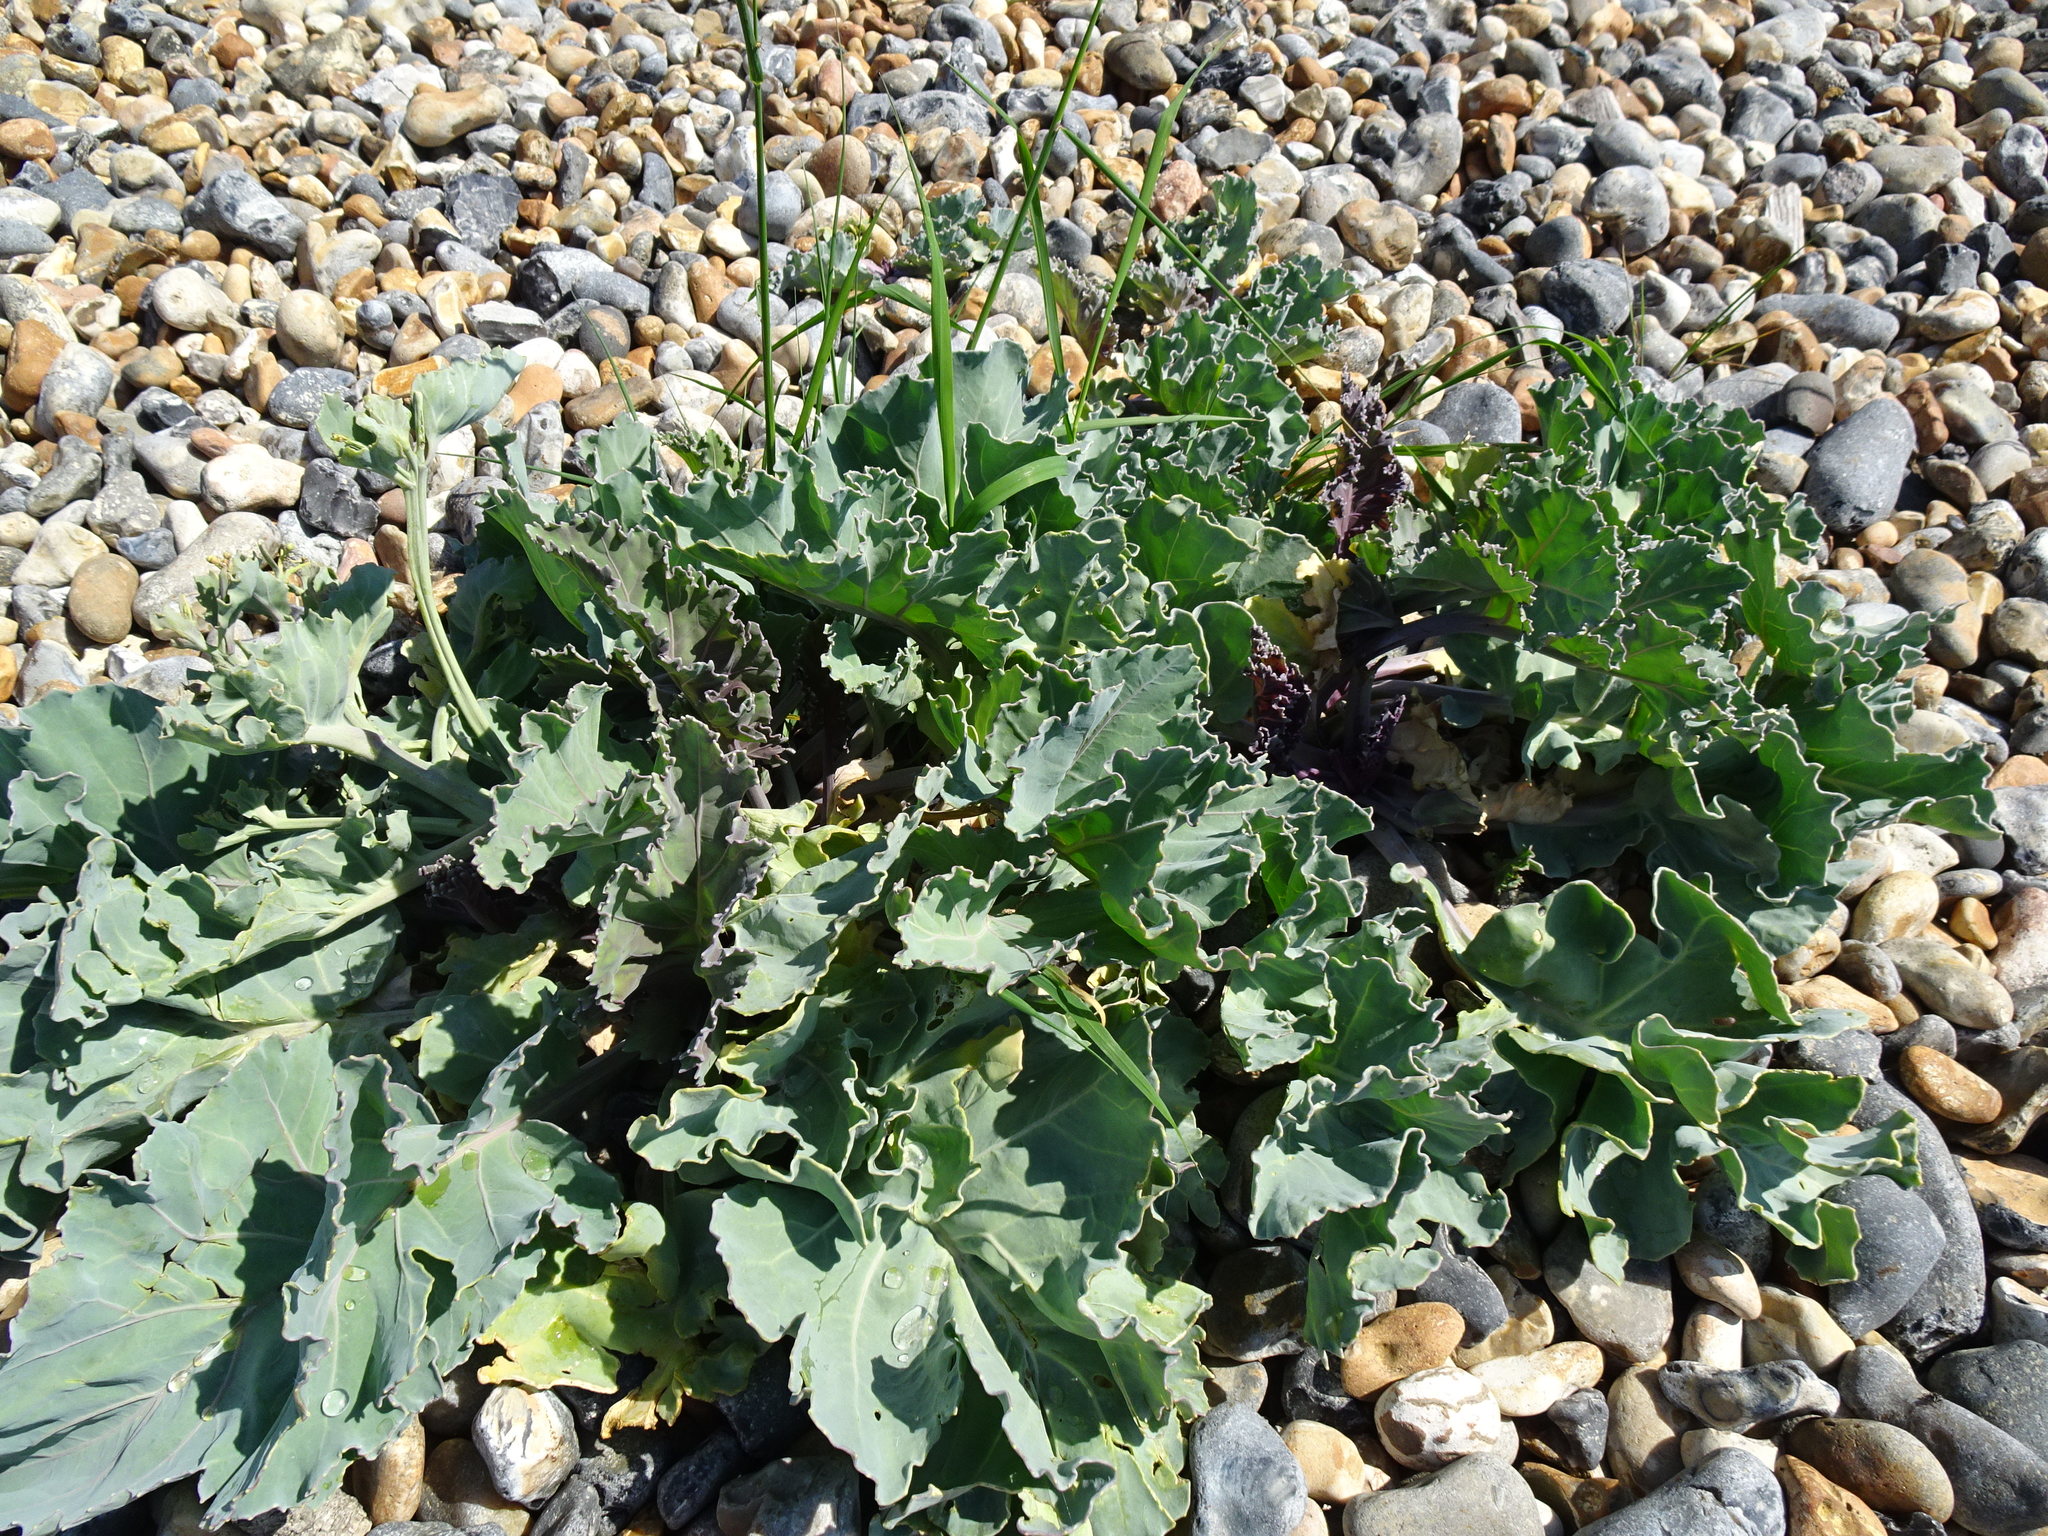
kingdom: Plantae
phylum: Tracheophyta
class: Magnoliopsida
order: Brassicales
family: Brassicaceae
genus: Crambe
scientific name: Crambe maritima
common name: Sea-kale
